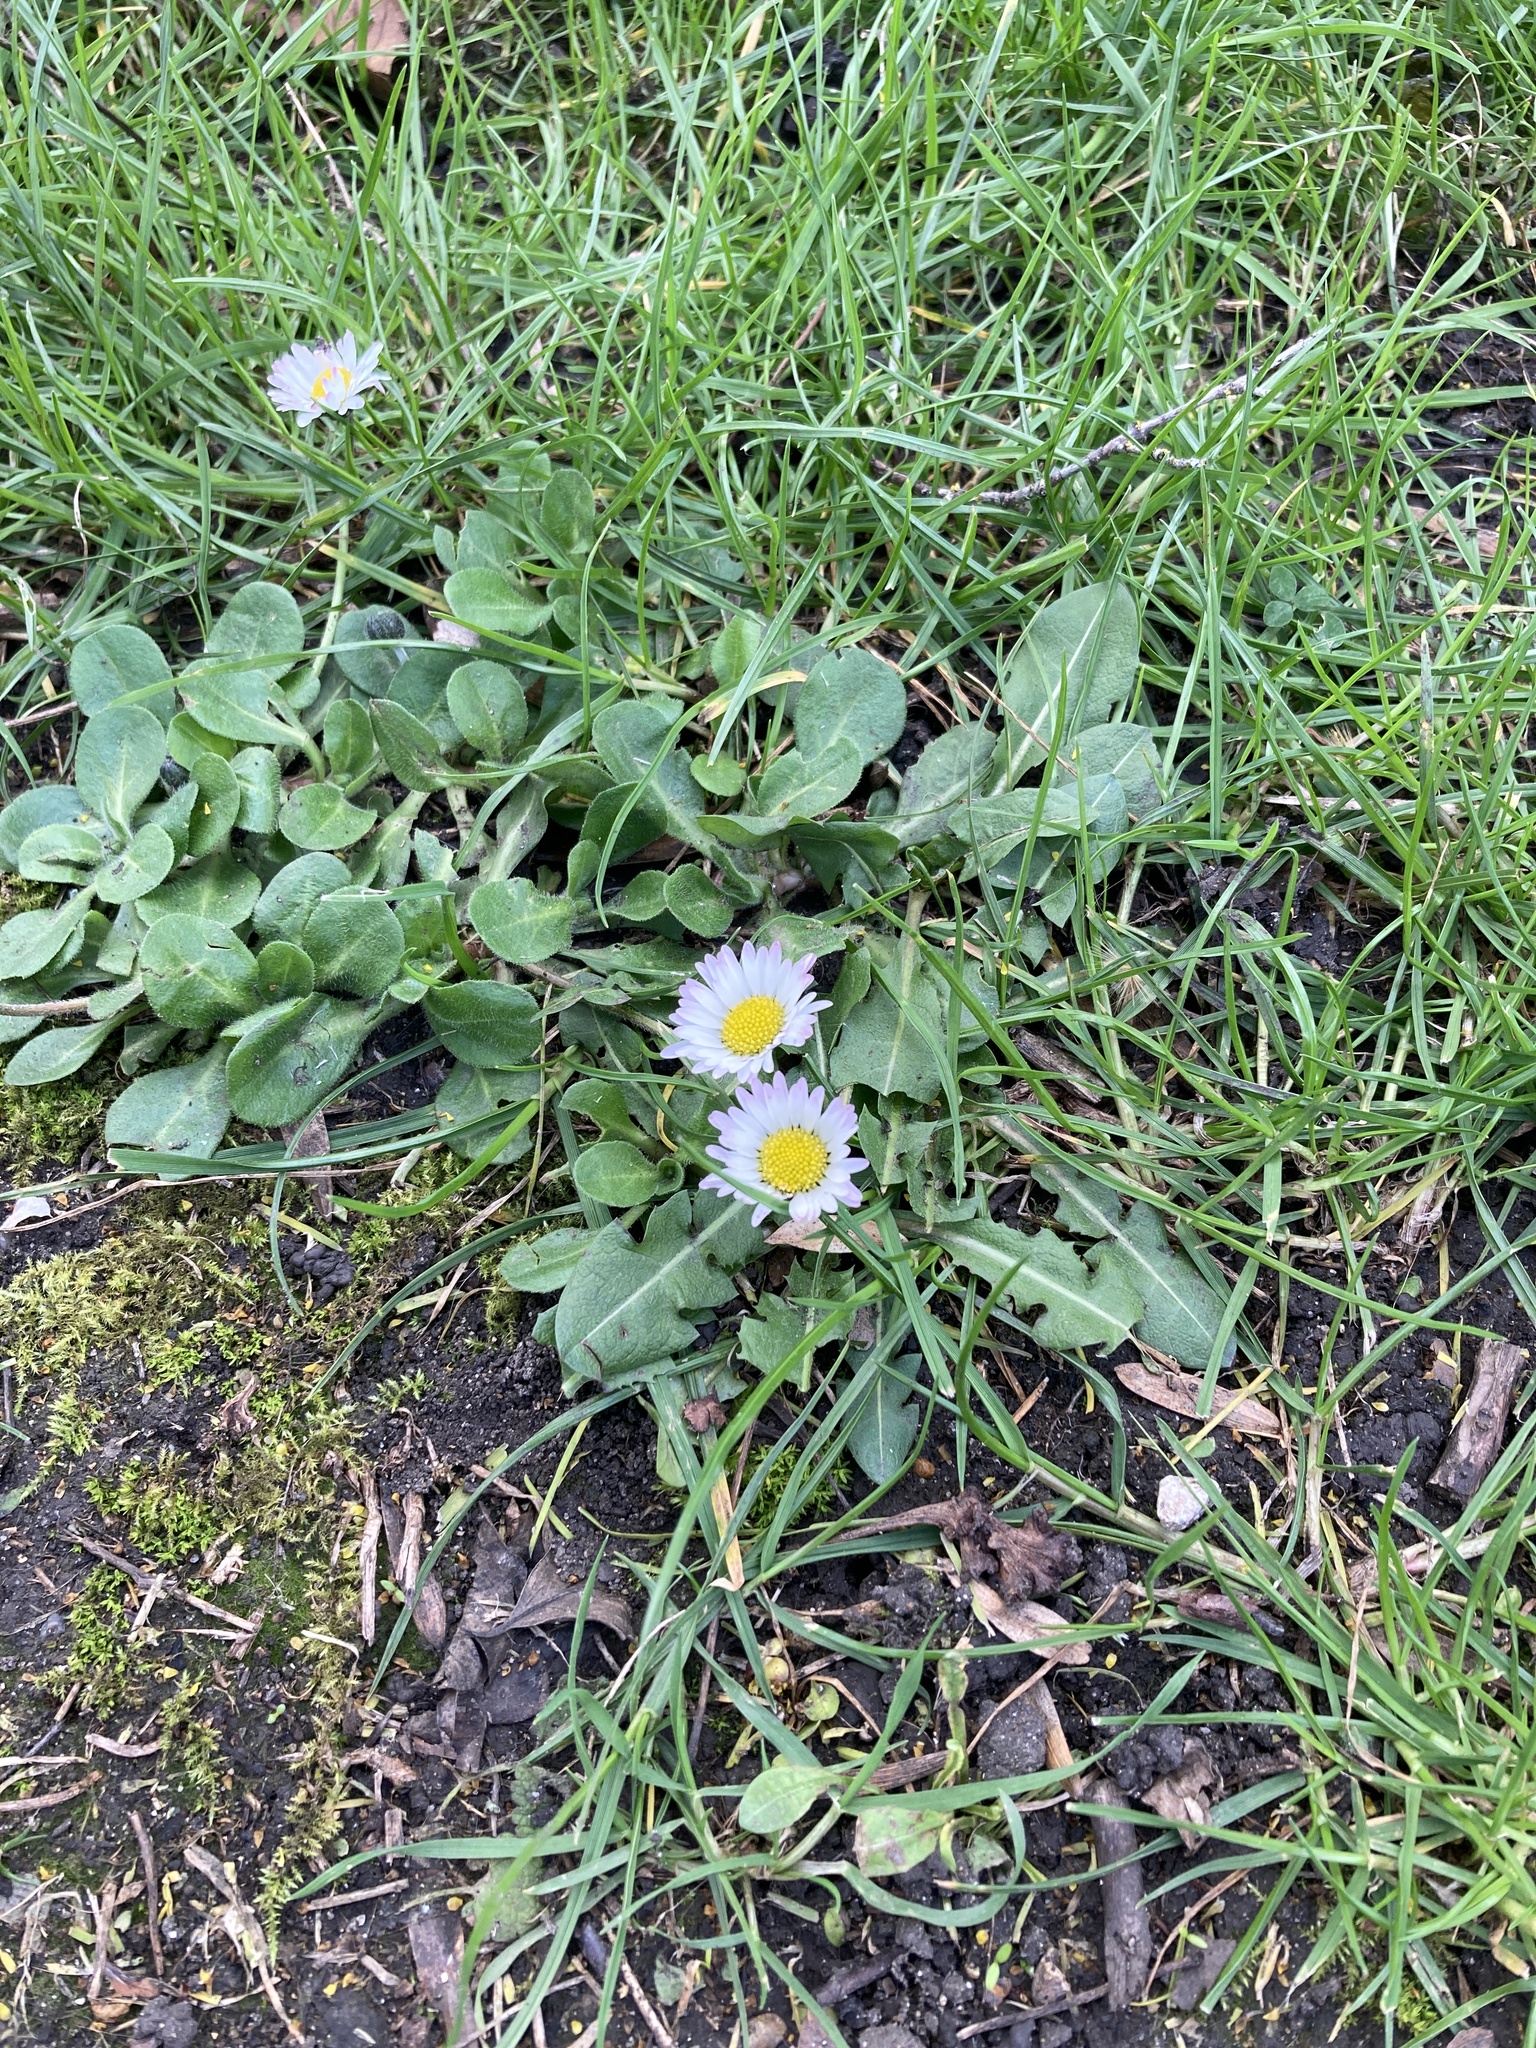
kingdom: Plantae
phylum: Tracheophyta
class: Magnoliopsida
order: Asterales
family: Asteraceae
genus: Bellis
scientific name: Bellis perennis
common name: Lawndaisy
